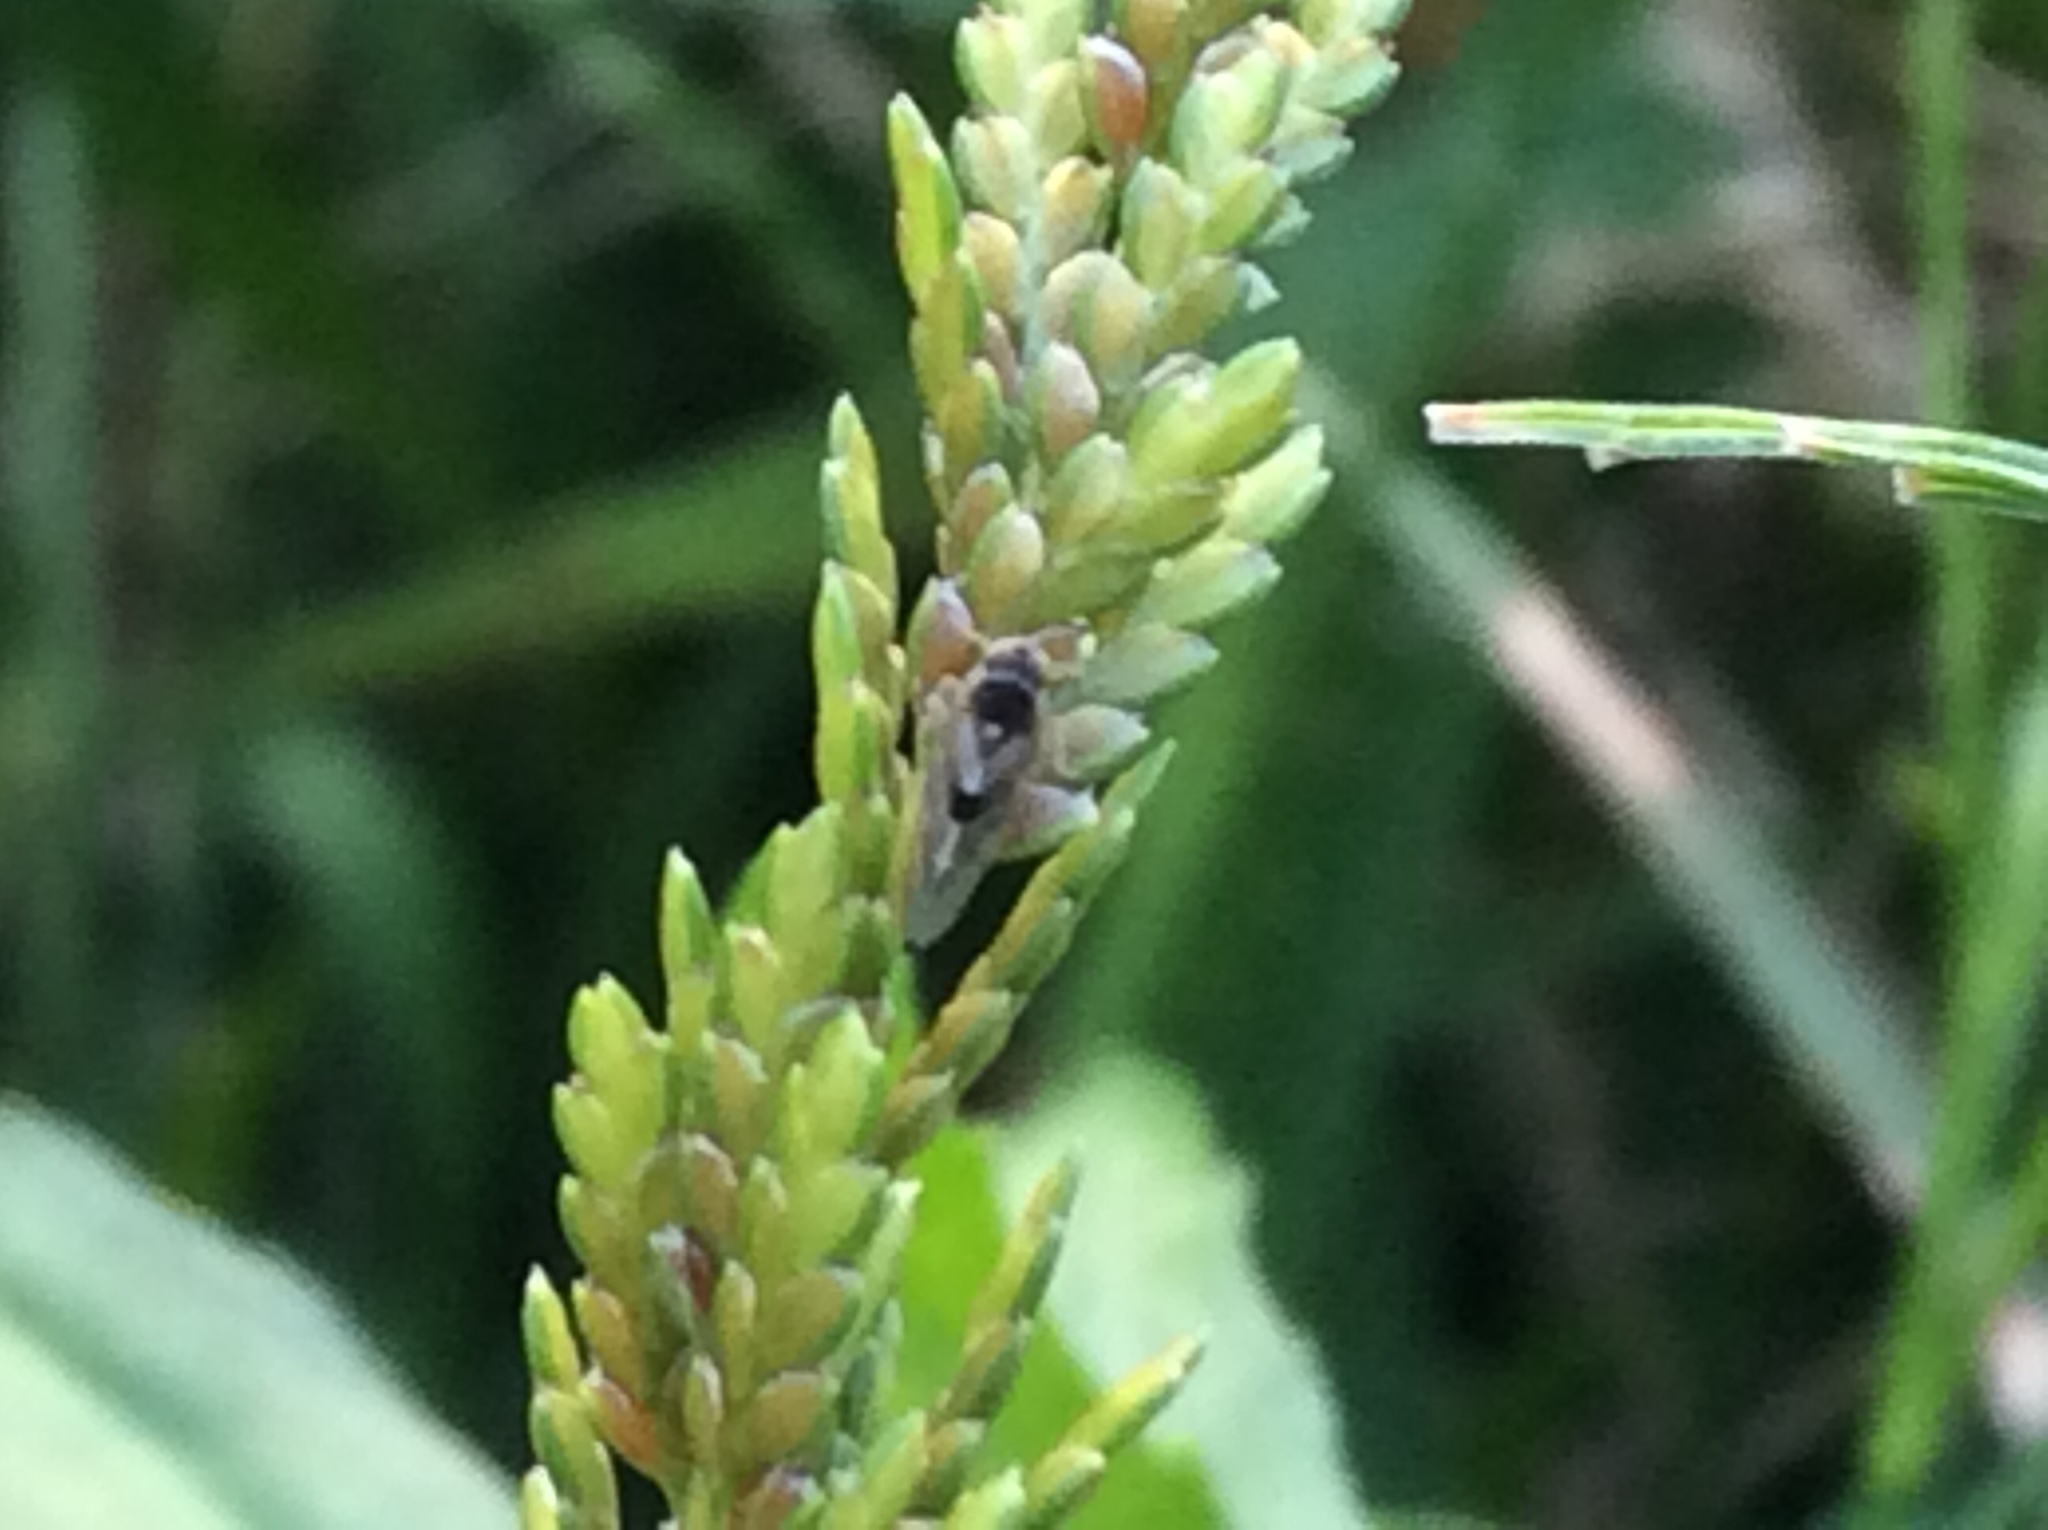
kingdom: Animalia
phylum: Arthropoda
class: Insecta
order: Hemiptera
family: Delphacidae
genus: Chionomus
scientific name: Chionomus
